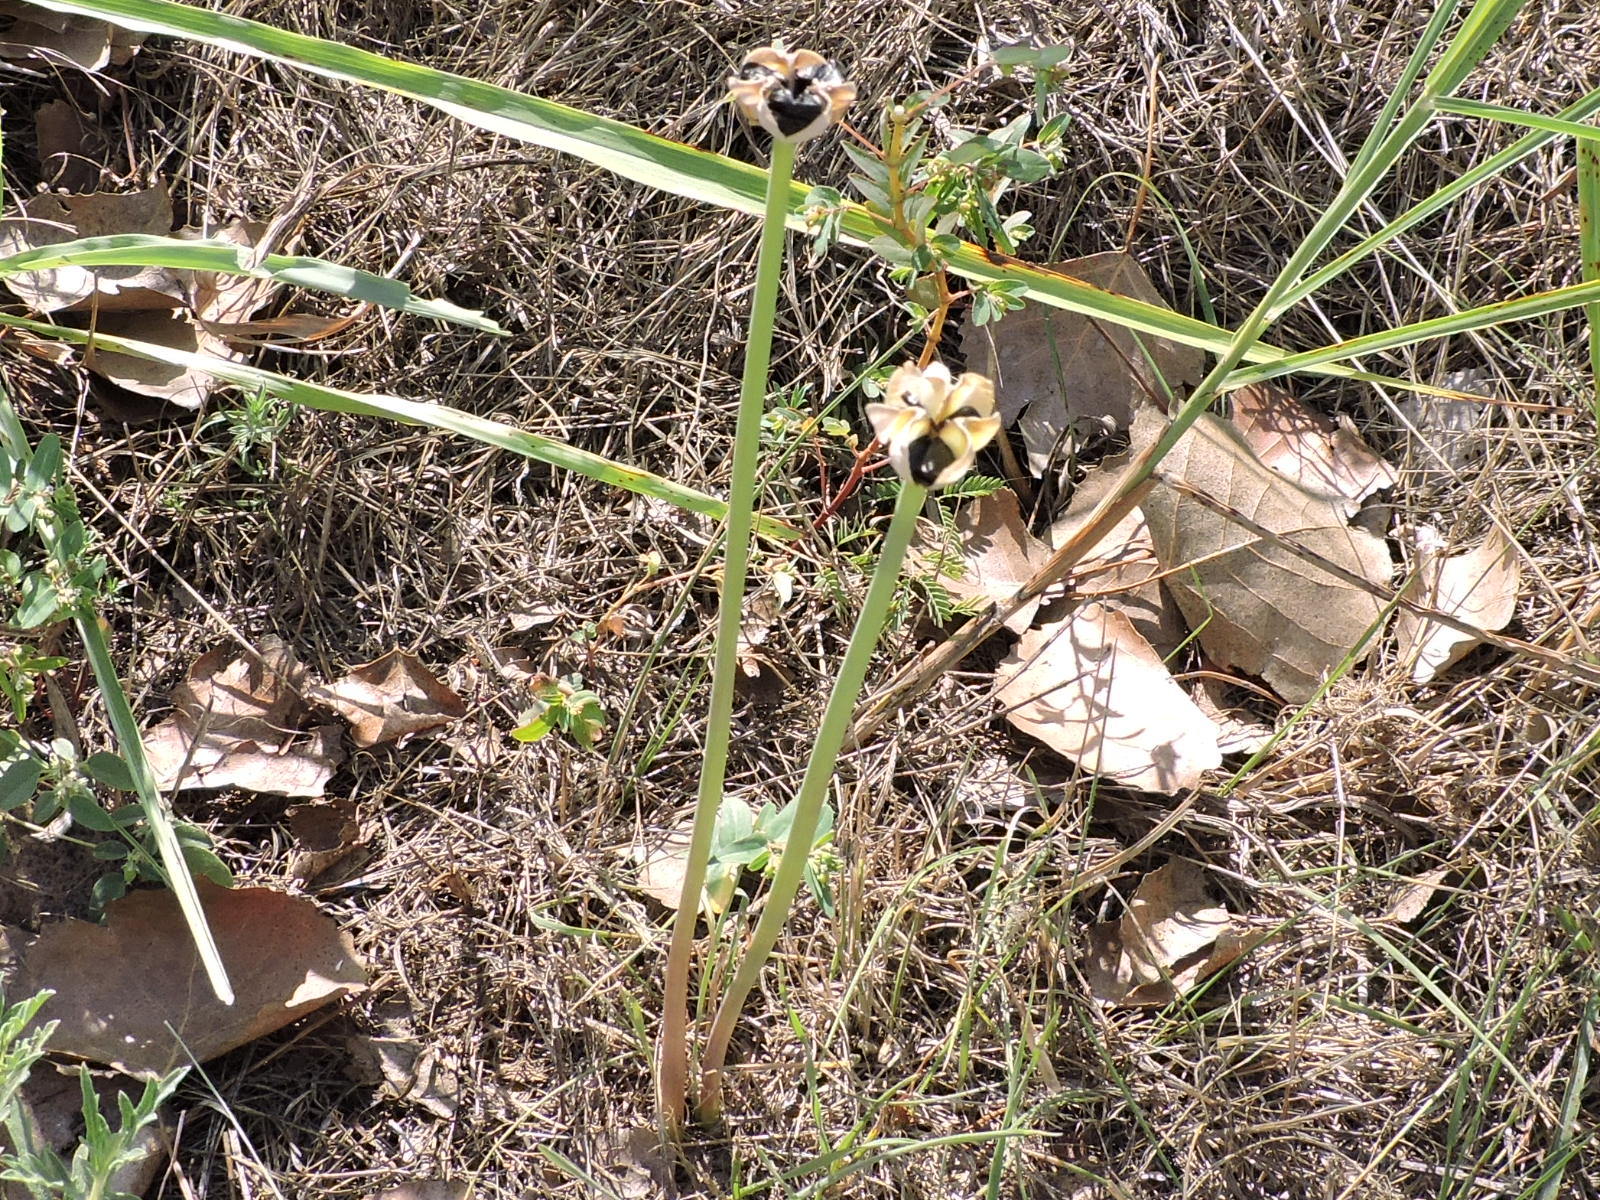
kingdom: Plantae
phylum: Tracheophyta
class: Liliopsida
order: Asparagales
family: Amaryllidaceae
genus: Zephyranthes
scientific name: Zephyranthes chlorosolen
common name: Evening rain-lily
